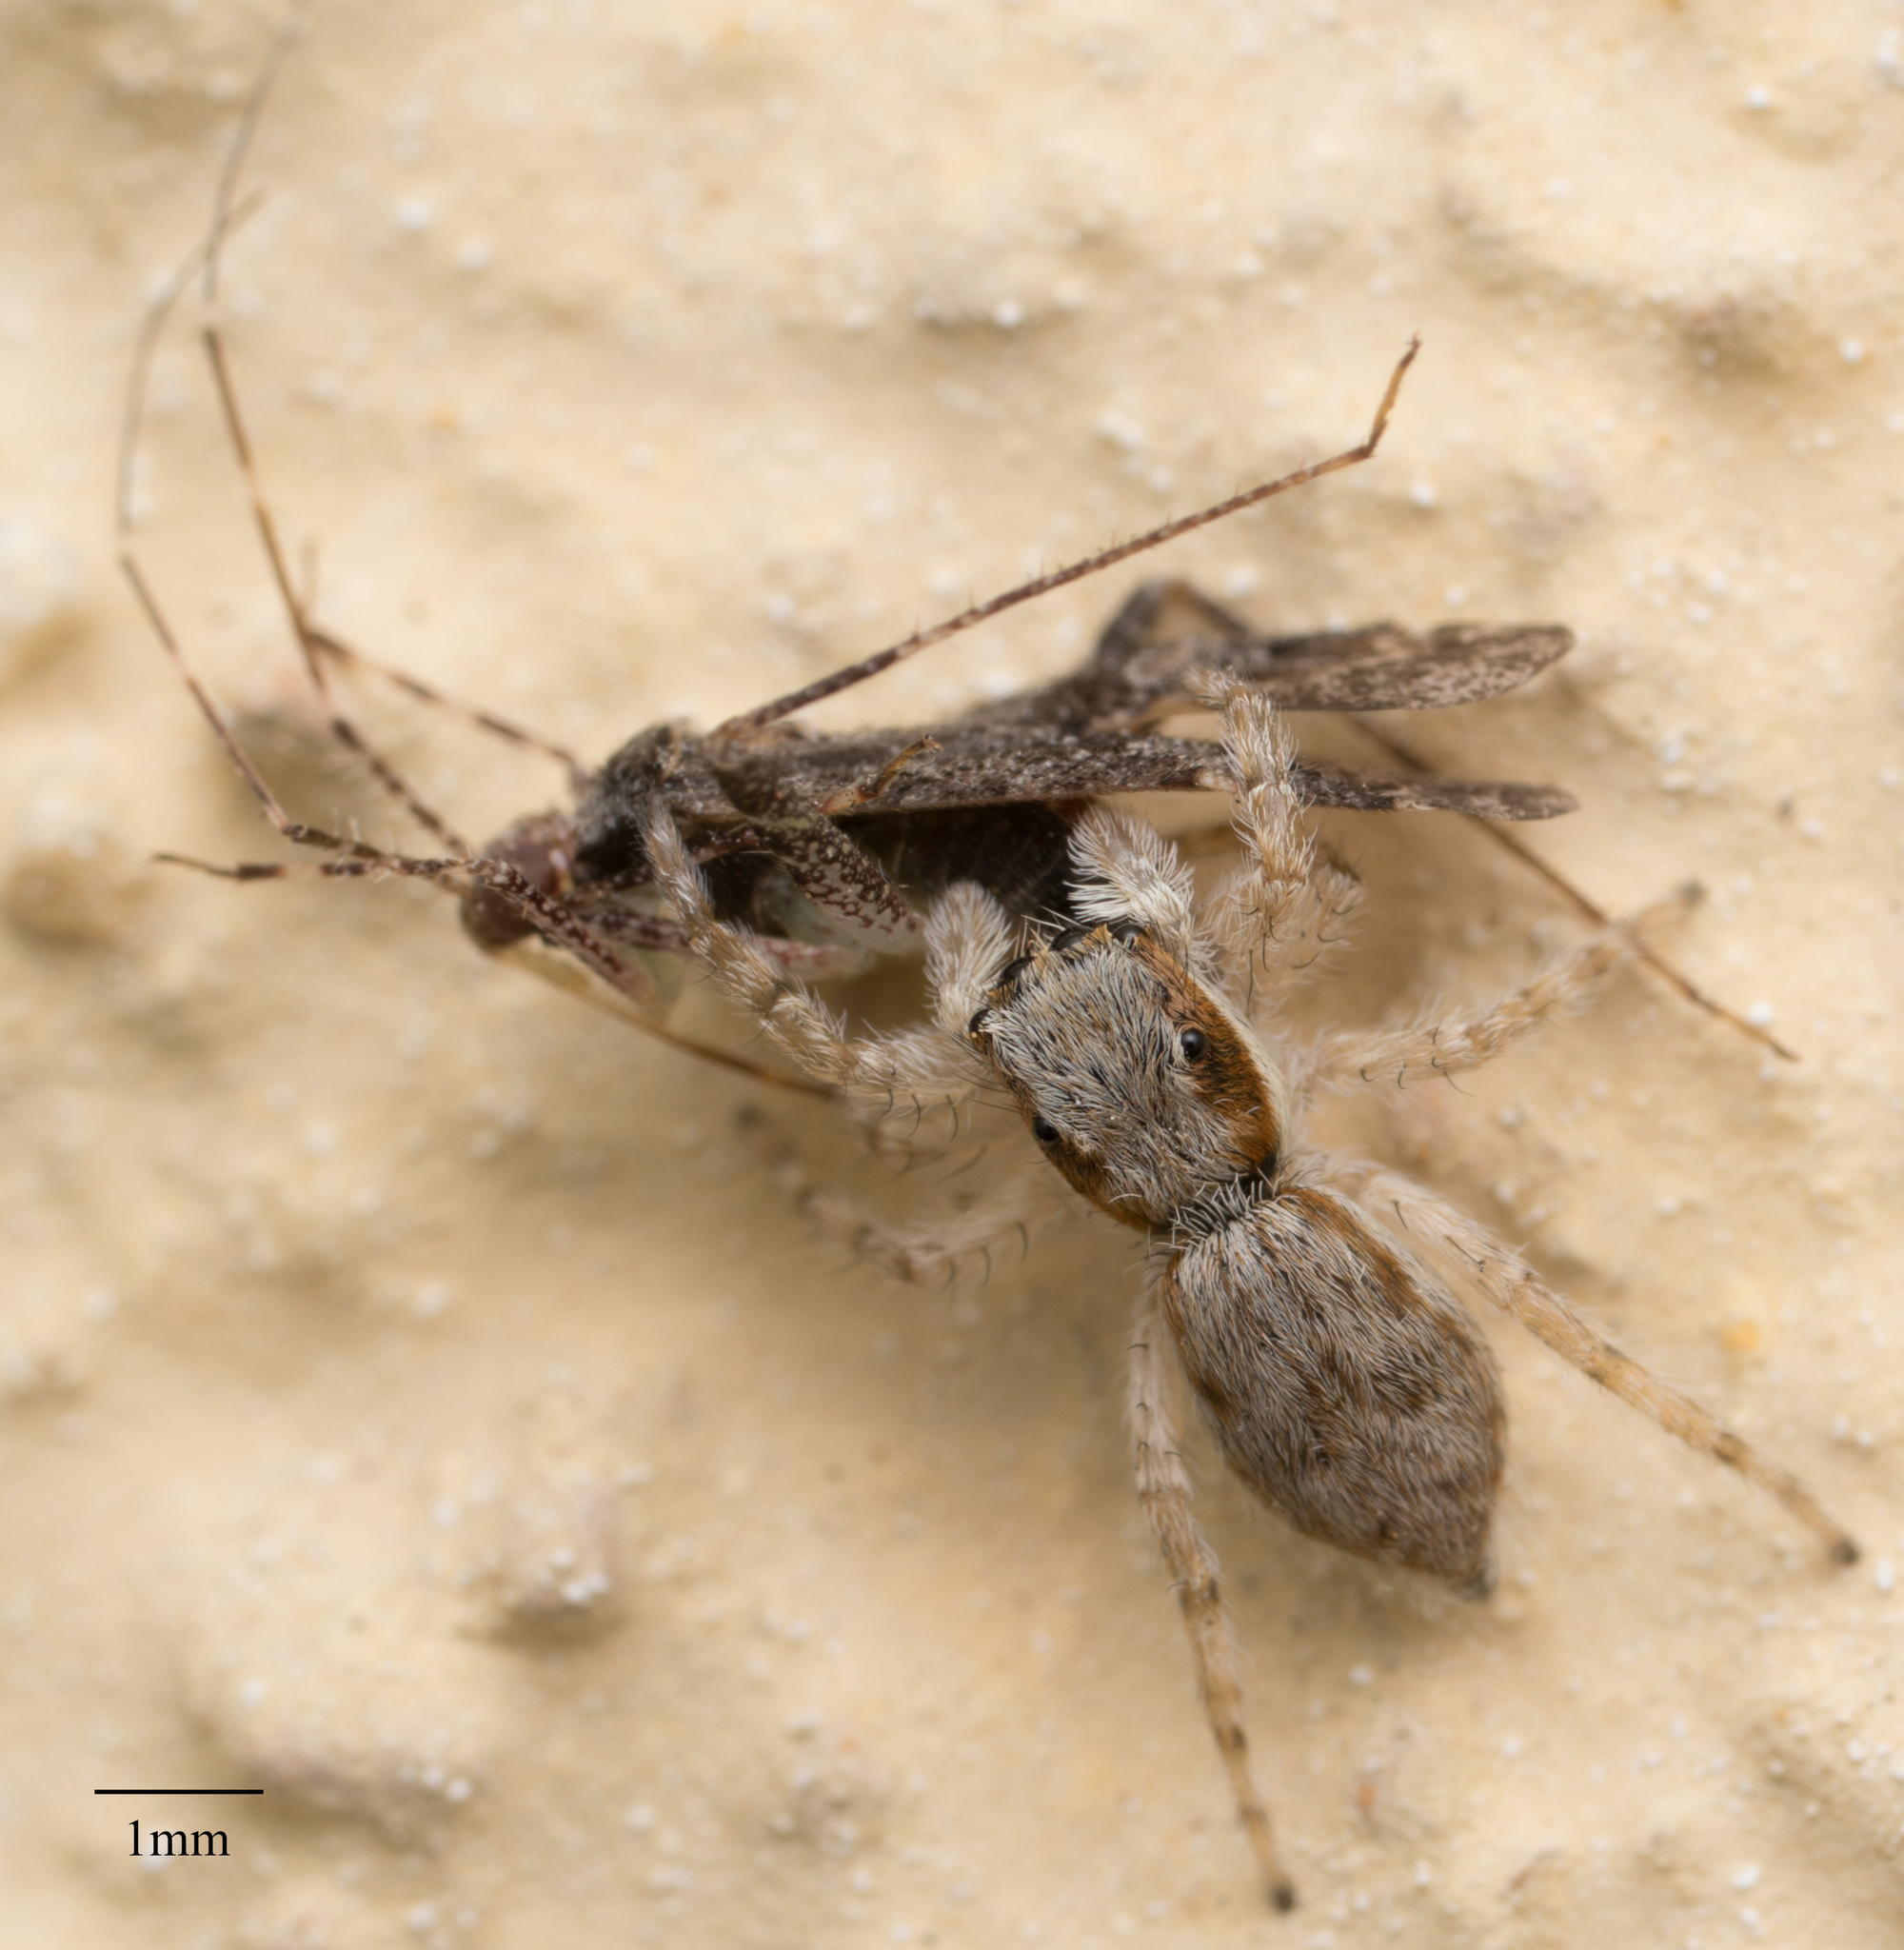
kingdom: Animalia
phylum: Arthropoda
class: Arachnida
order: Araneae
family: Salticidae
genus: Menemerus
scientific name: Menemerus bivittatus
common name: Gray wall jumper
